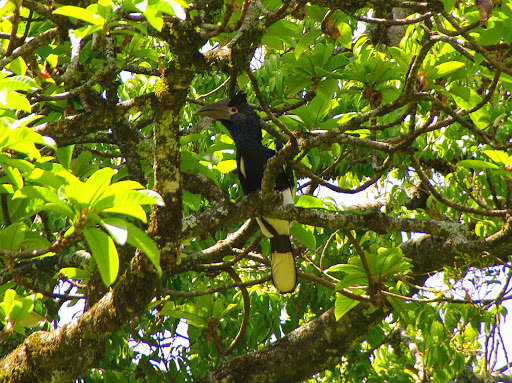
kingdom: Animalia
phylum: Chordata
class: Aves
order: Bucerotiformes
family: Bucerotidae
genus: Bycanistes
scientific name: Bycanistes subcylindricus
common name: Black-and-white-casqued hornbill
